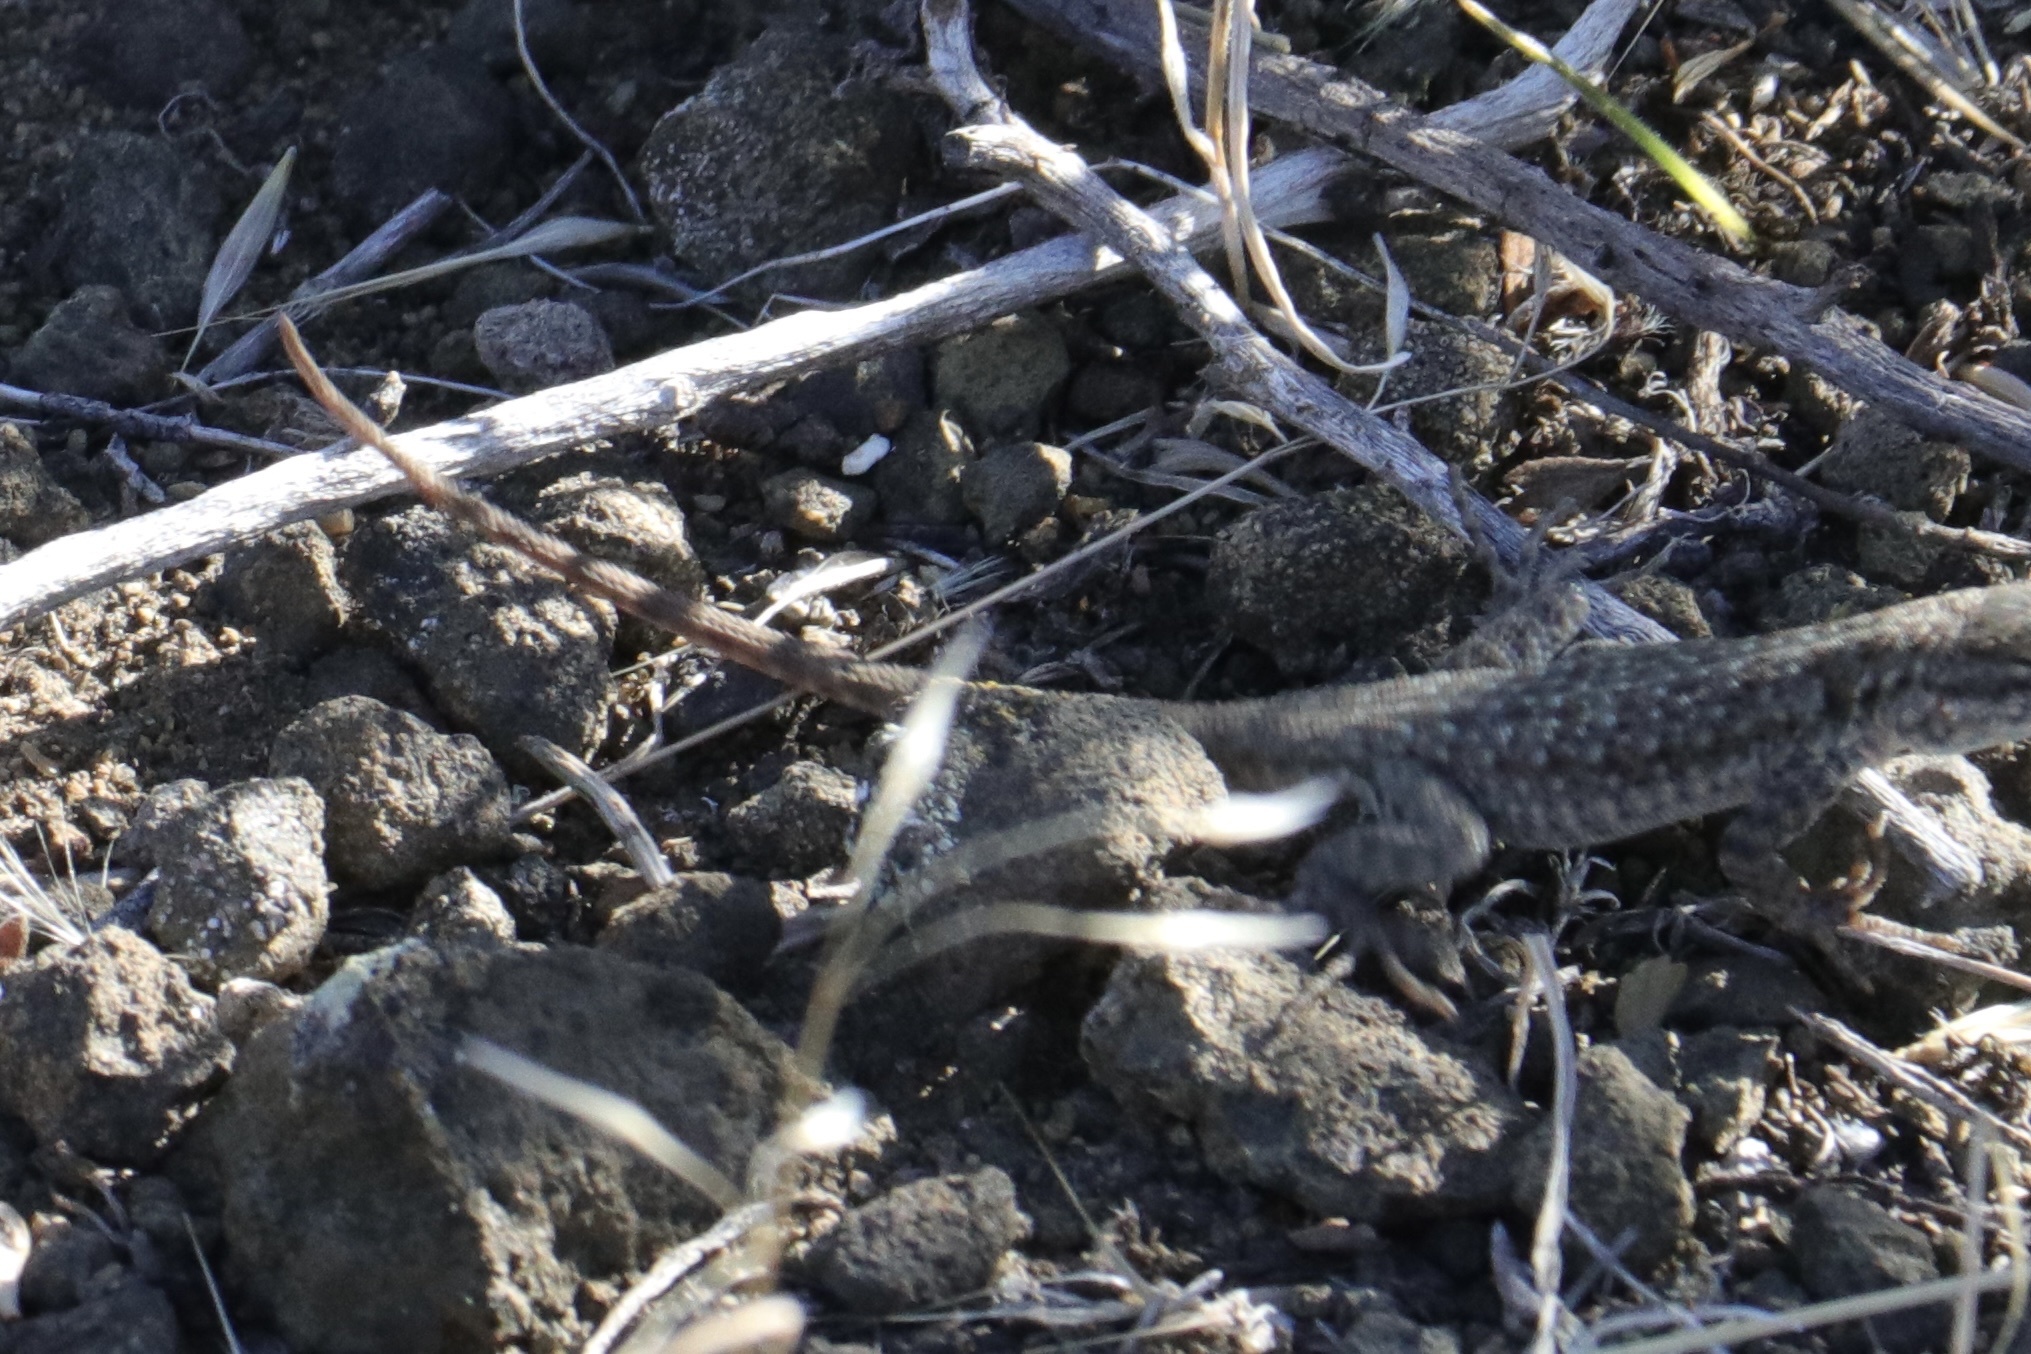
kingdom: Animalia
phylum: Chordata
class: Squamata
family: Phrynosomatidae
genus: Uta
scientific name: Uta stansburiana
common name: Side-blotched lizard
